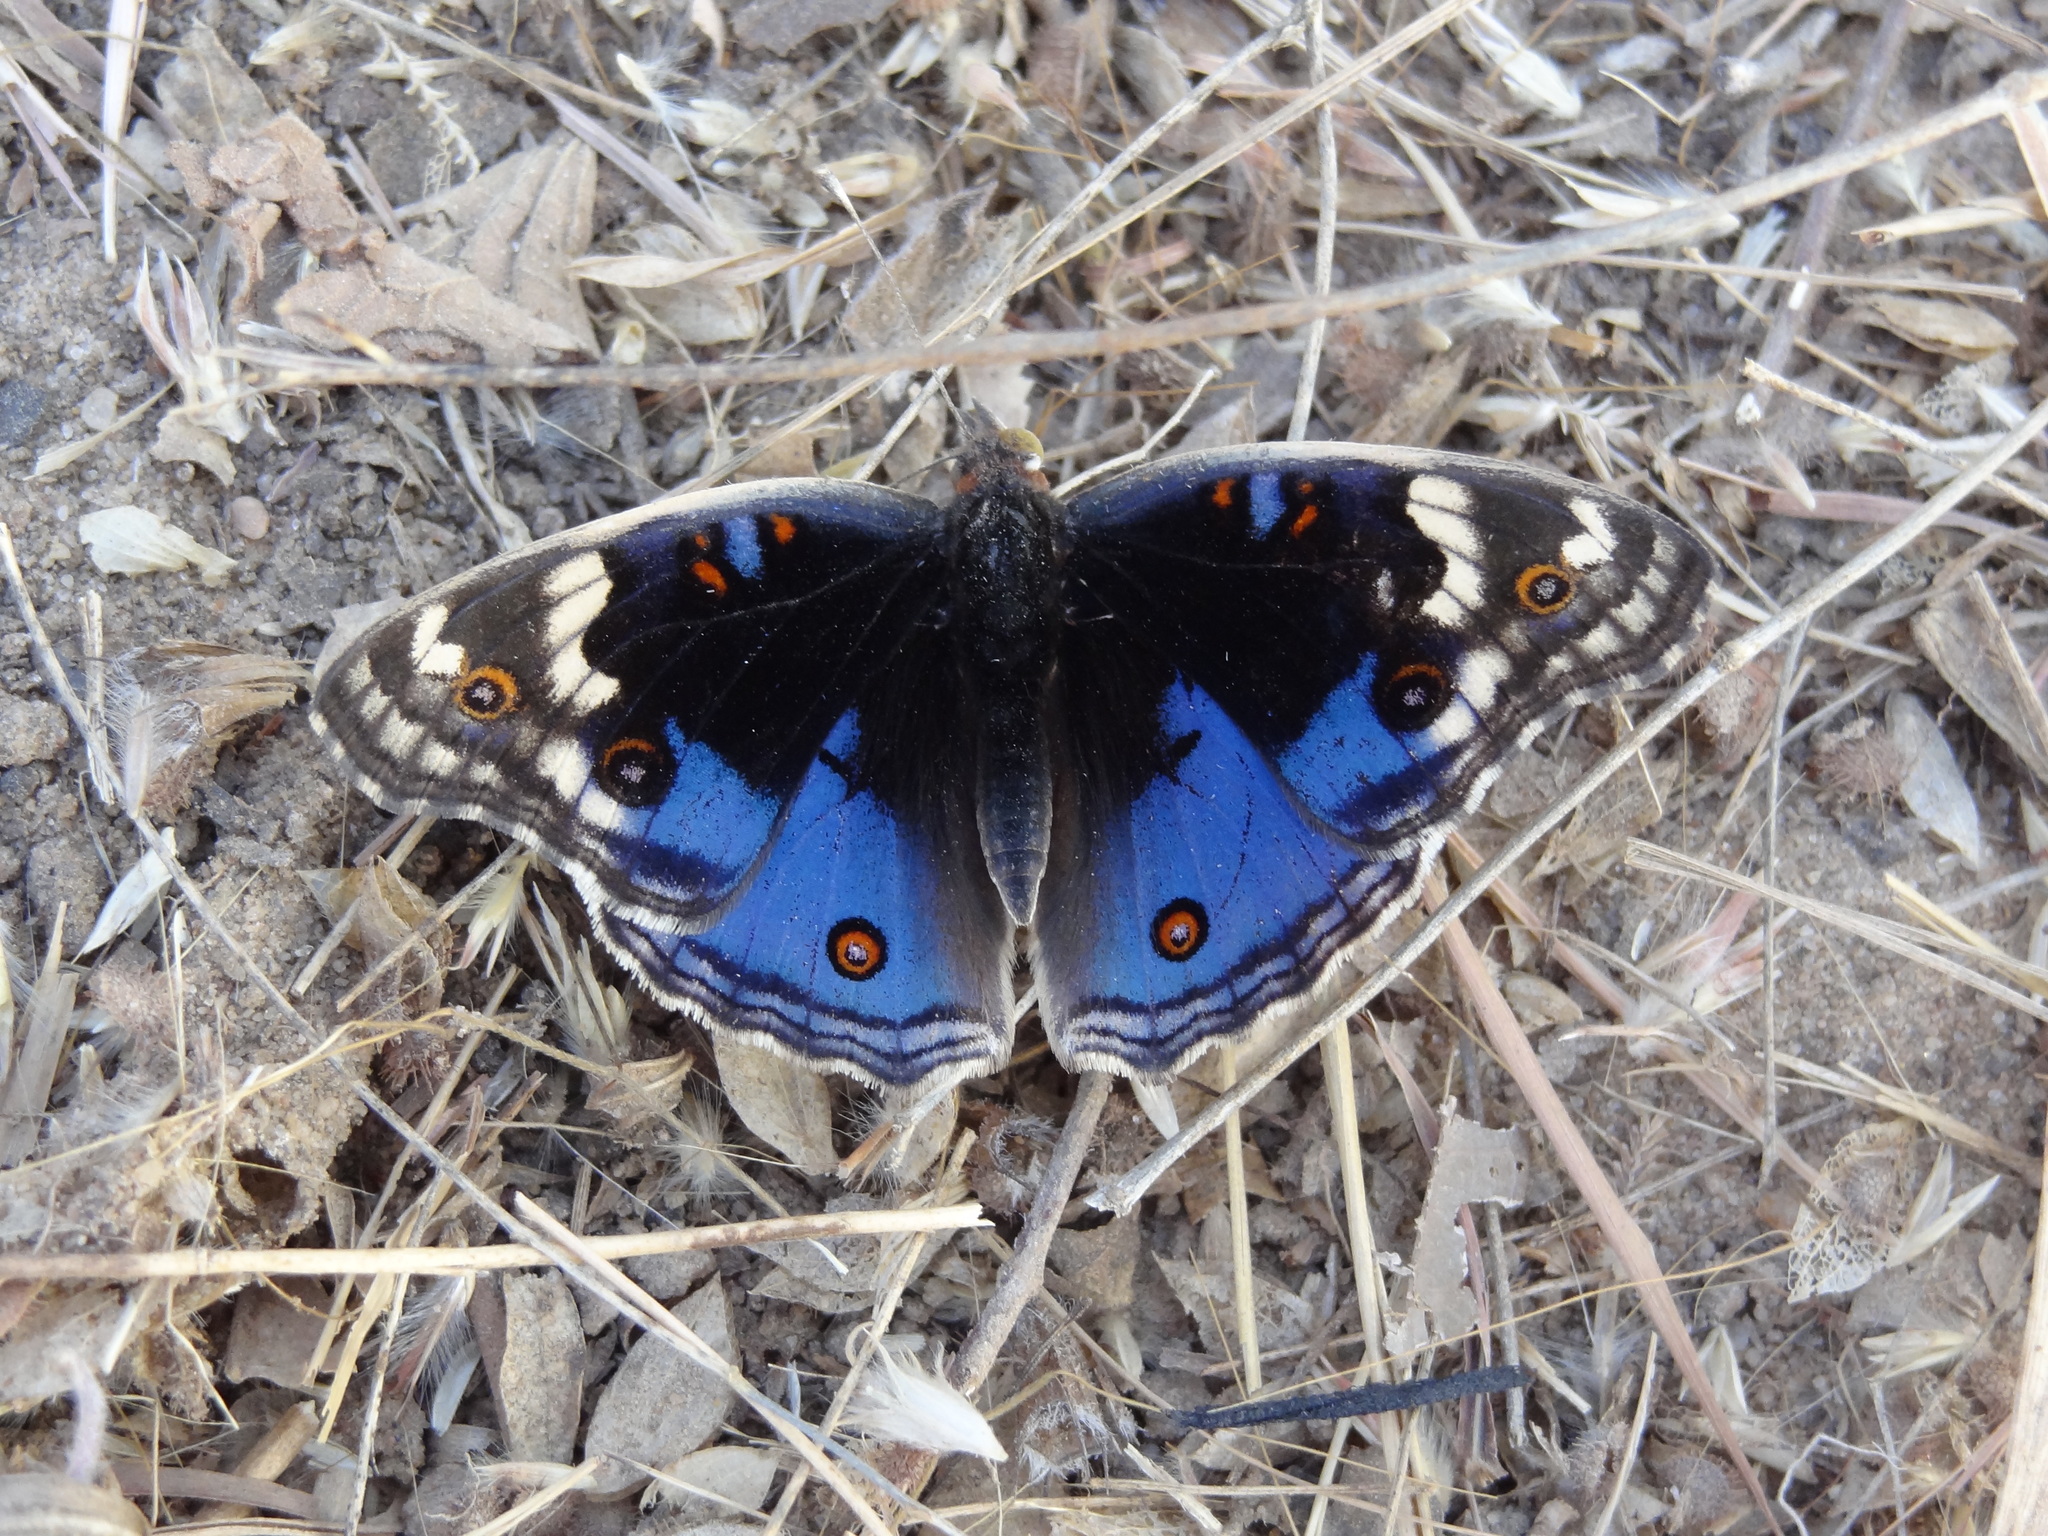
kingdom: Animalia
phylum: Arthropoda
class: Insecta
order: Lepidoptera
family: Nymphalidae
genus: Junonia
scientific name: Junonia orithya
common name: Blue pansy
